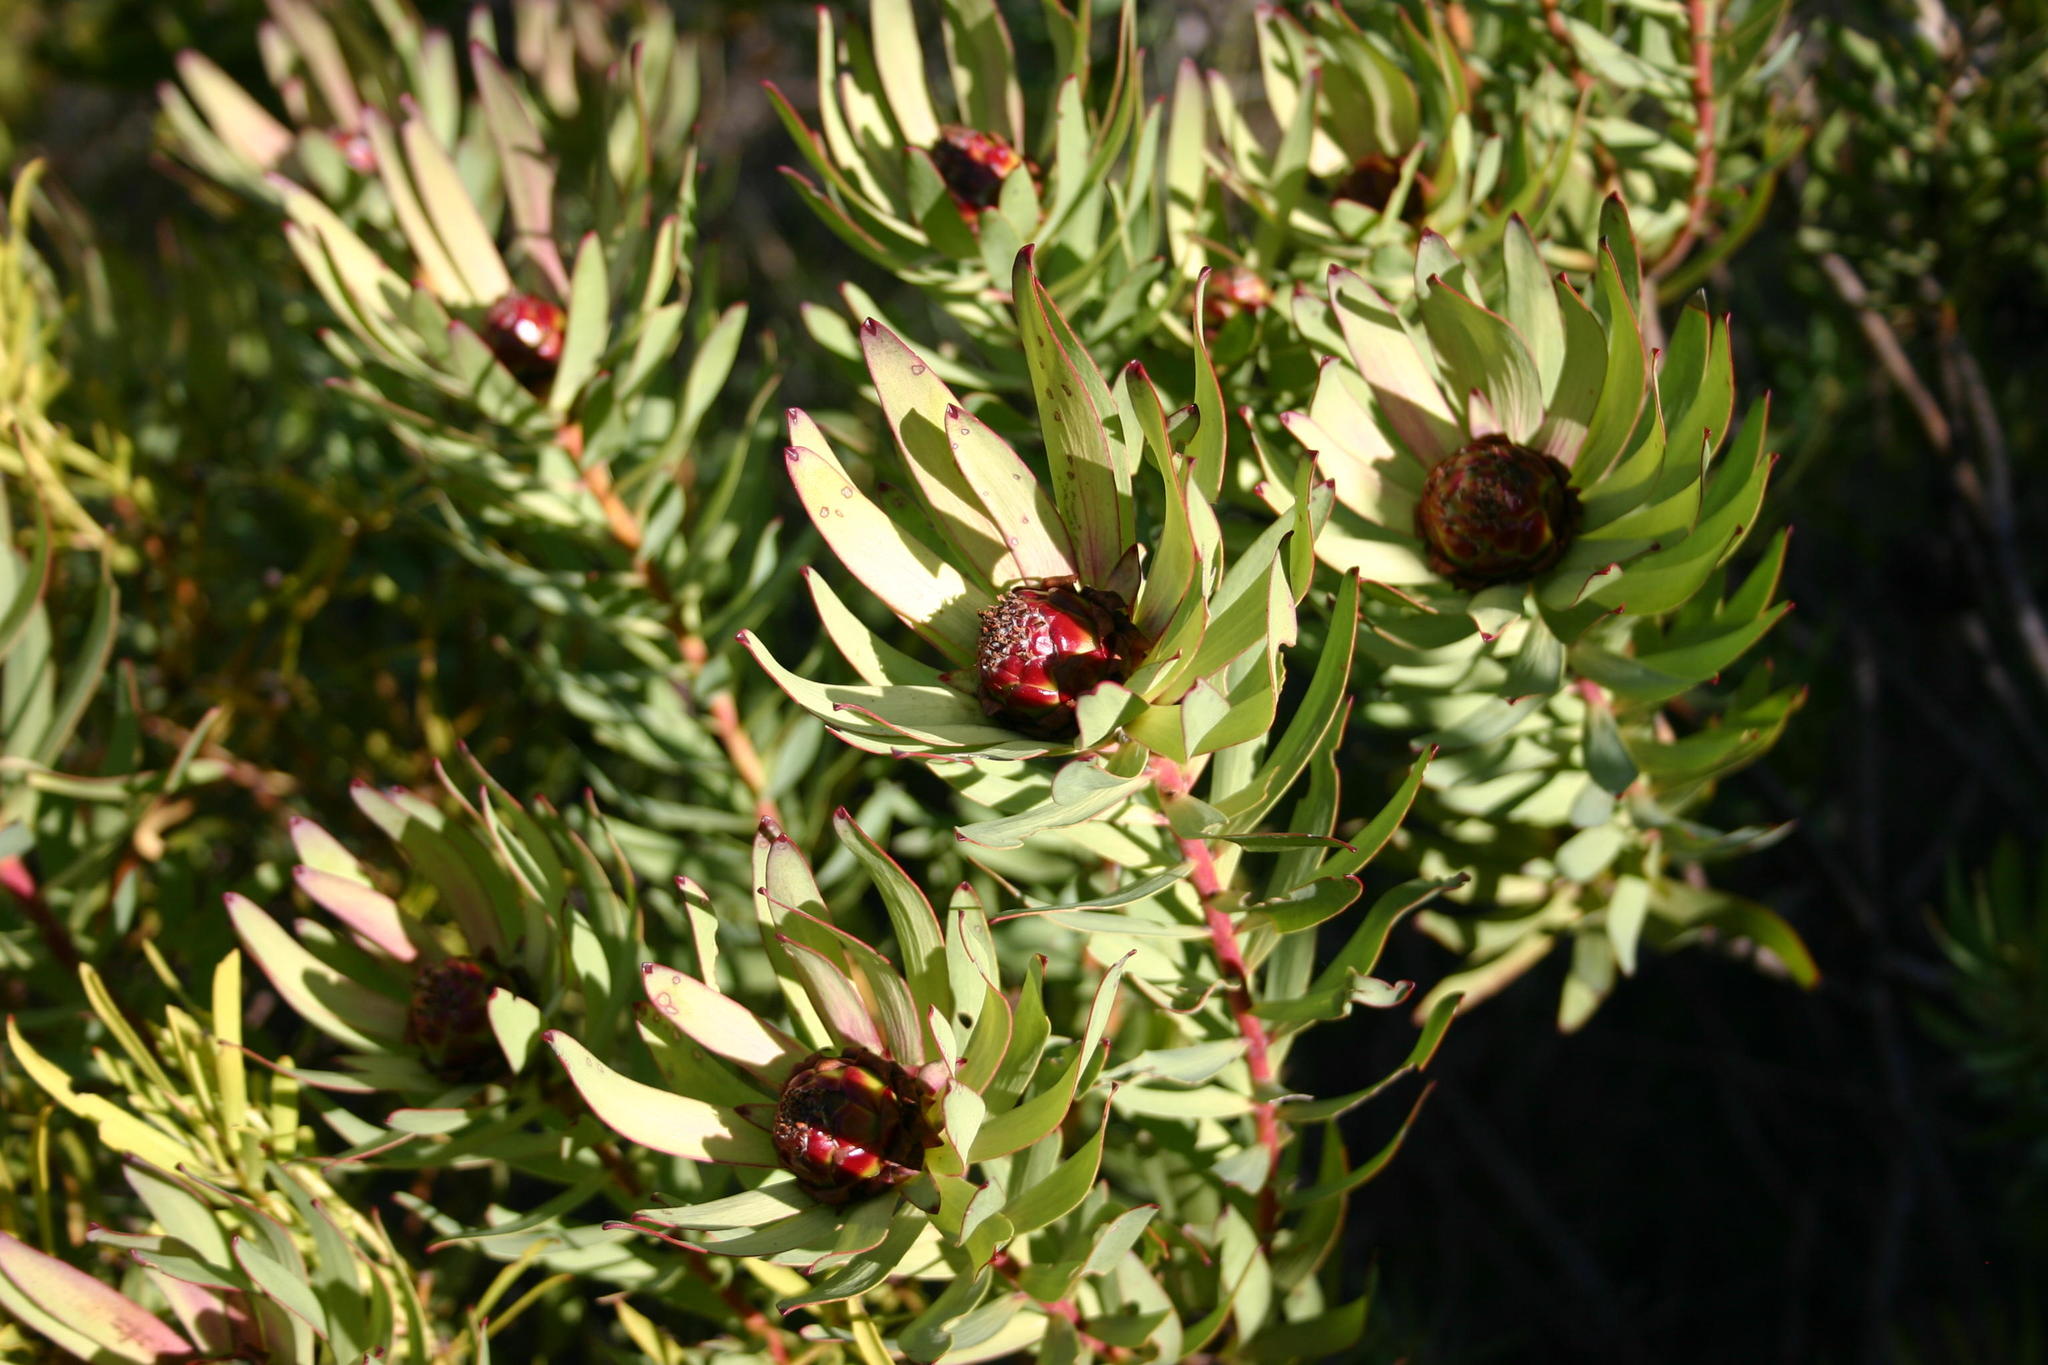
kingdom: Plantae
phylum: Tracheophyta
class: Magnoliopsida
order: Proteales
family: Proteaceae
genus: Leucadendron
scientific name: Leucadendron tradouwense
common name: Tradouw conebush
